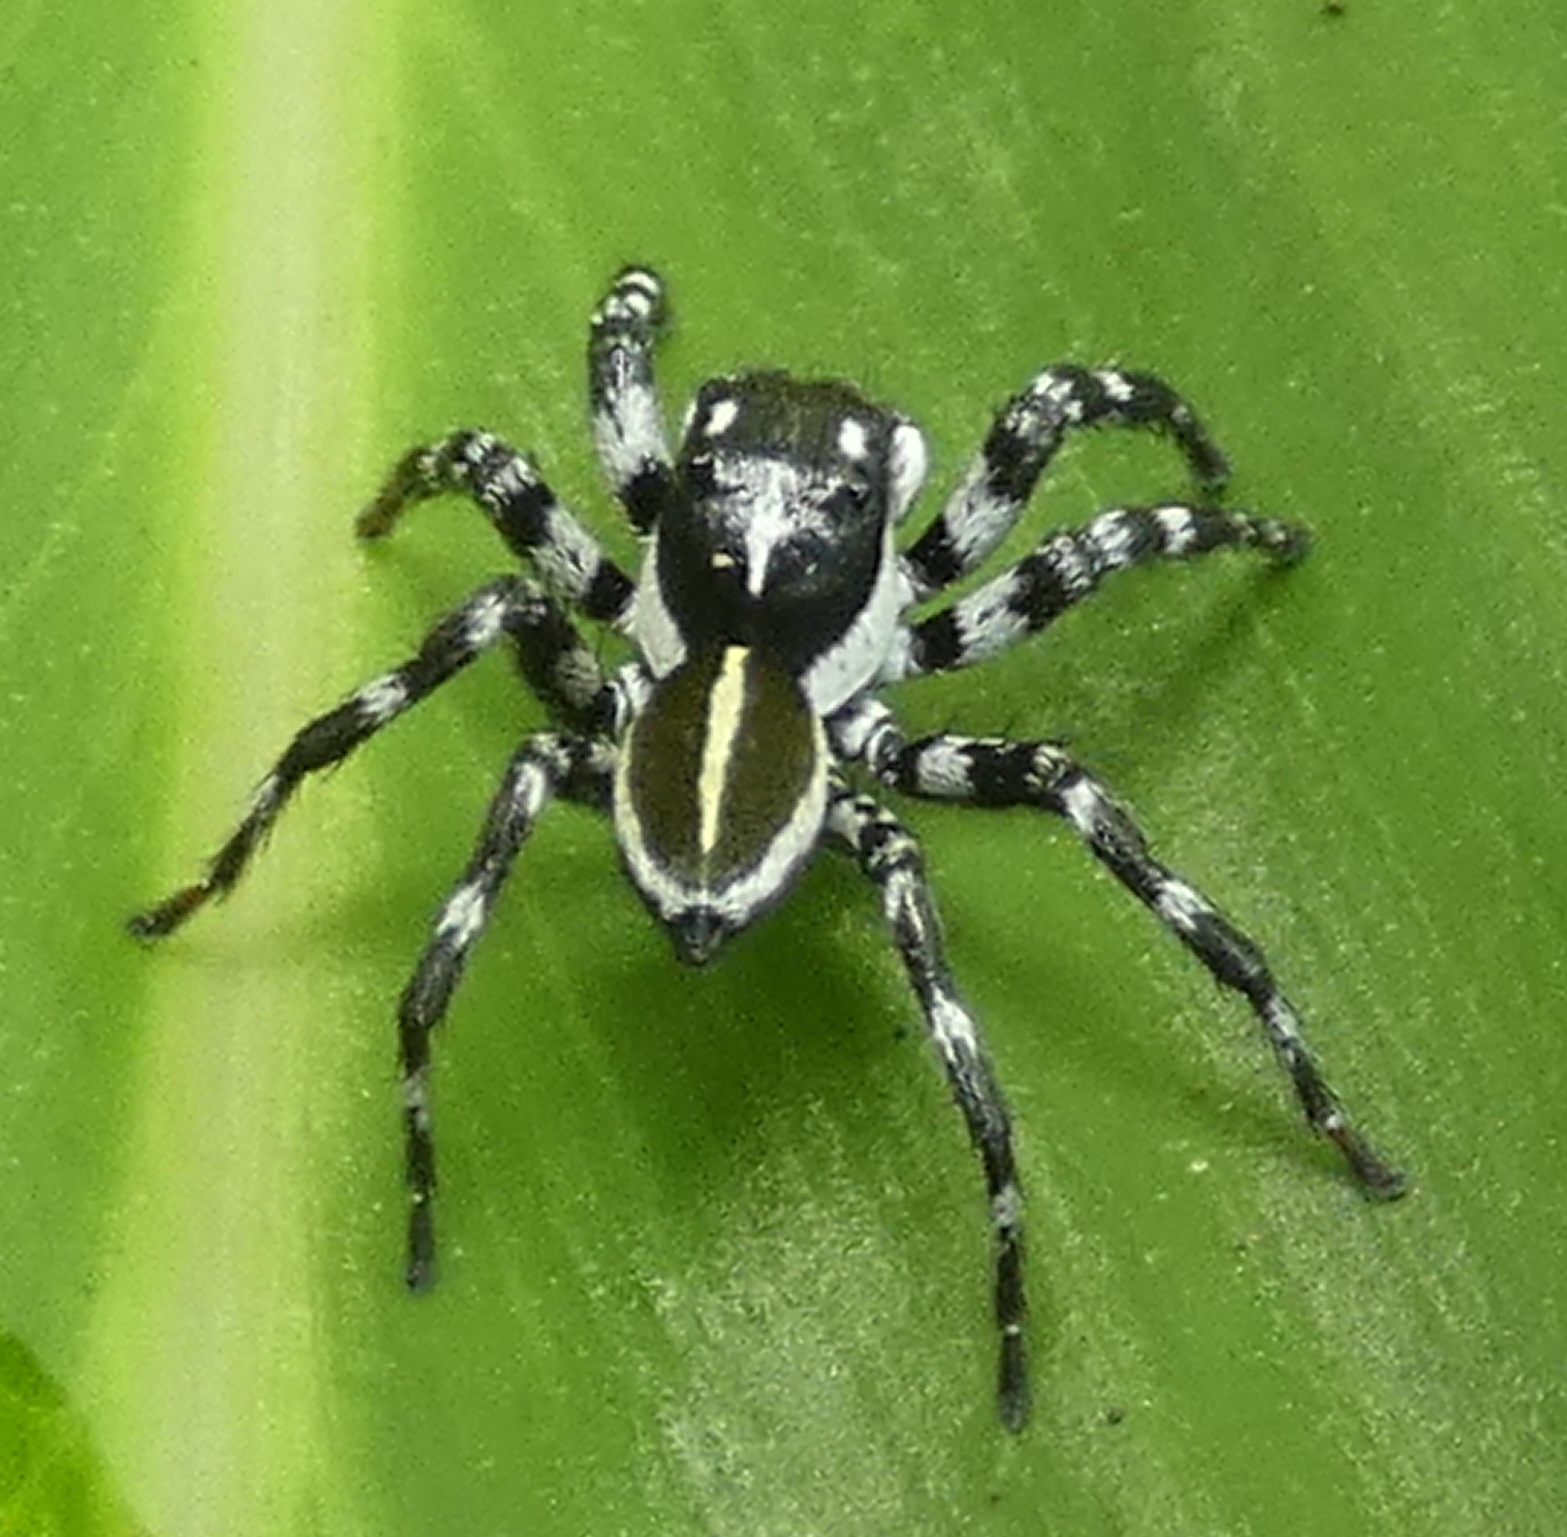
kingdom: Animalia
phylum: Arthropoda
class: Arachnida
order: Araneae
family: Salticidae
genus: Phiale
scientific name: Phiale crocea
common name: Jumping spiders
